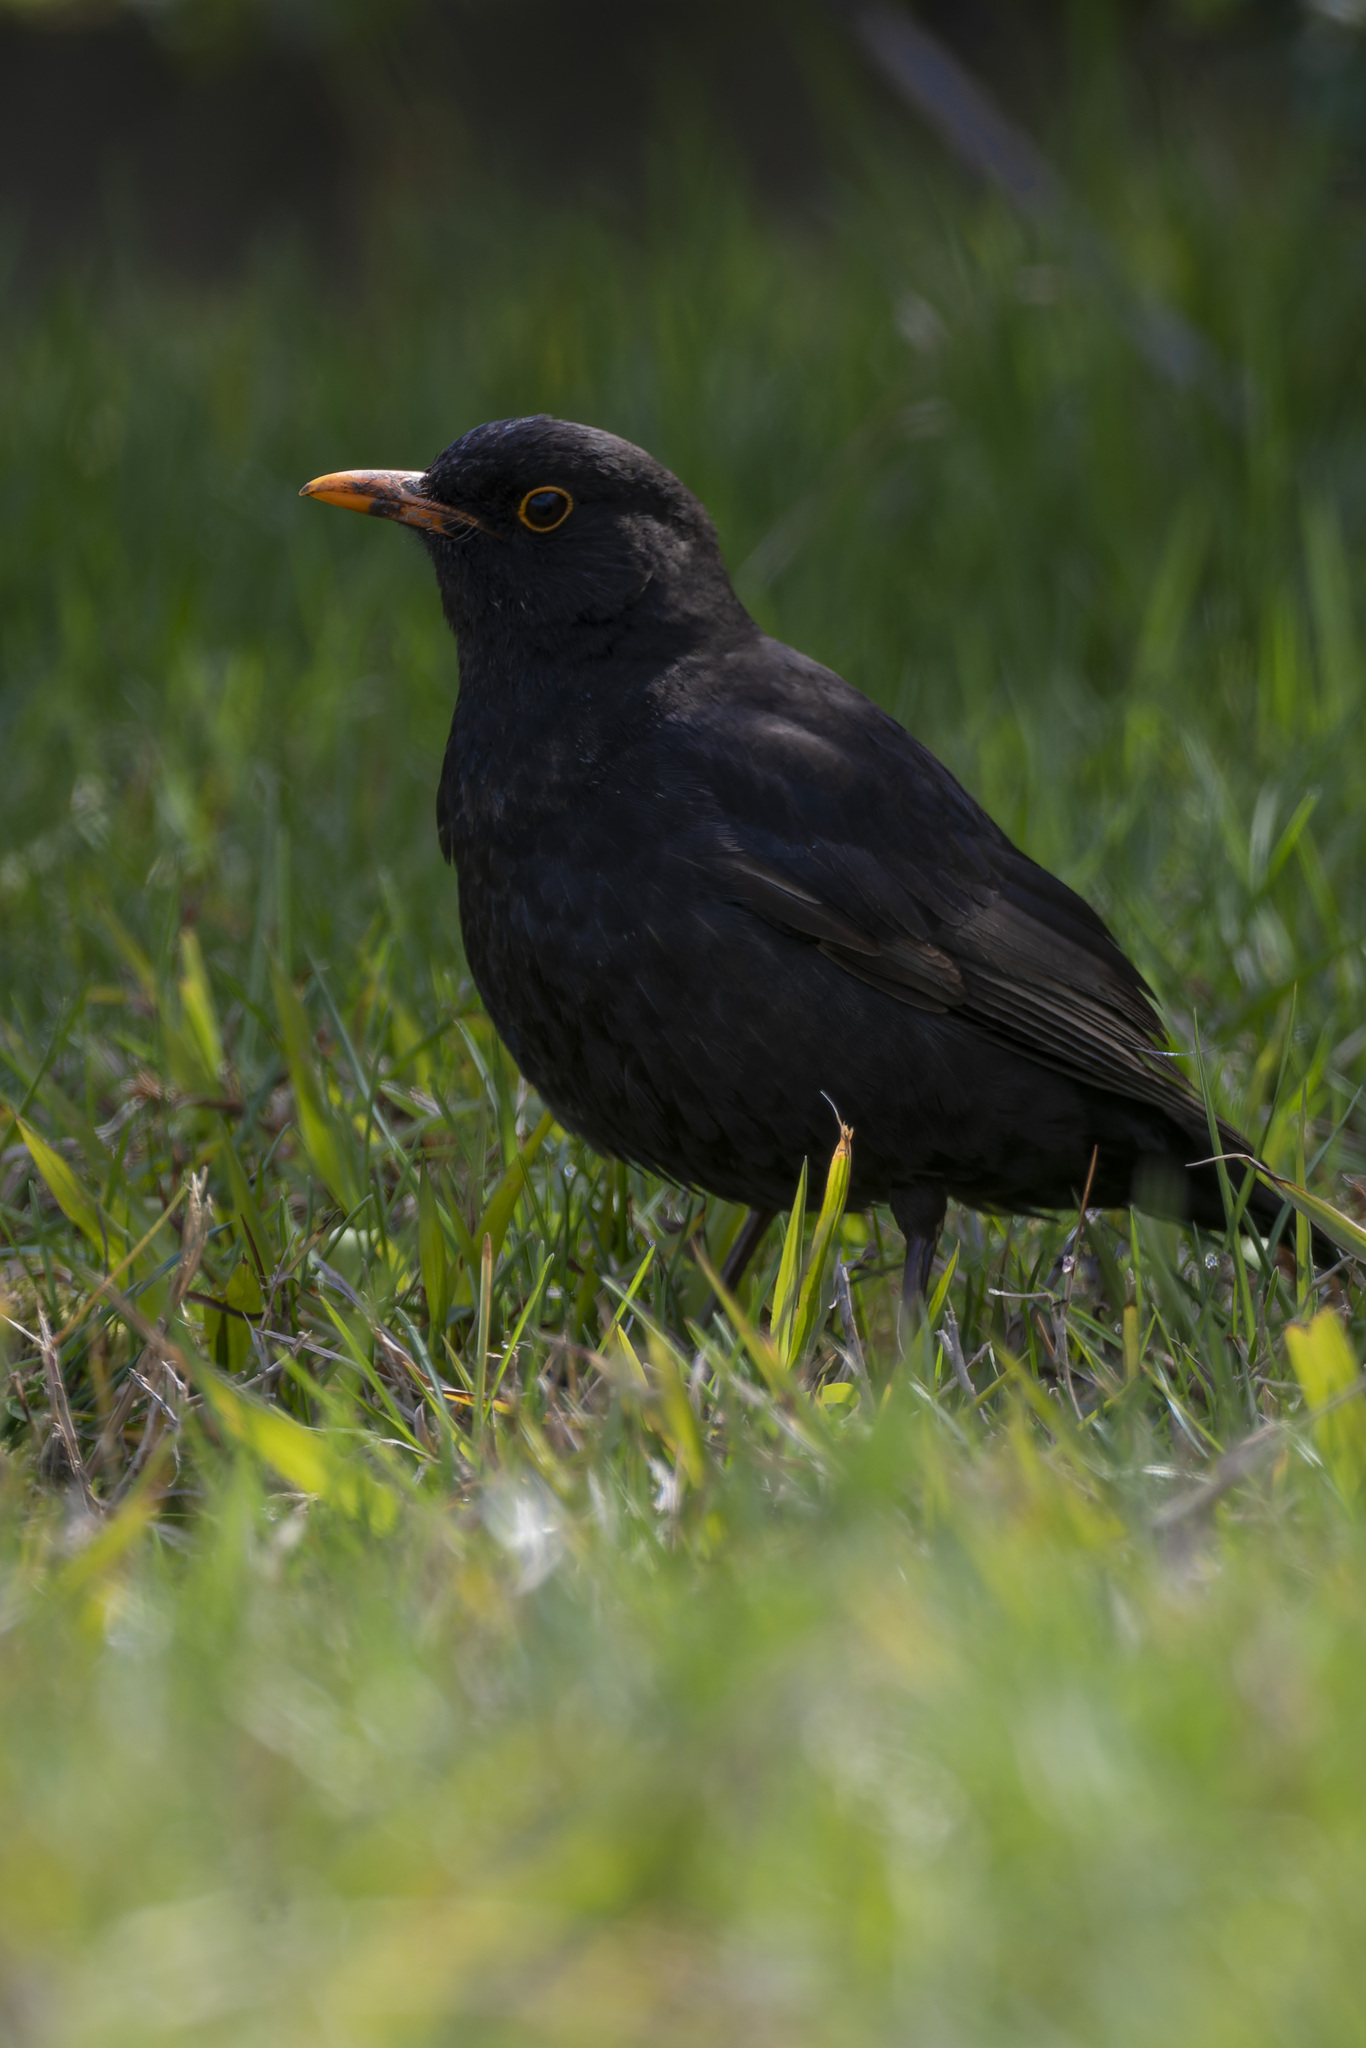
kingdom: Animalia
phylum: Chordata
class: Aves
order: Passeriformes
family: Turdidae
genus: Turdus
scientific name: Turdus merula
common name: Common blackbird
